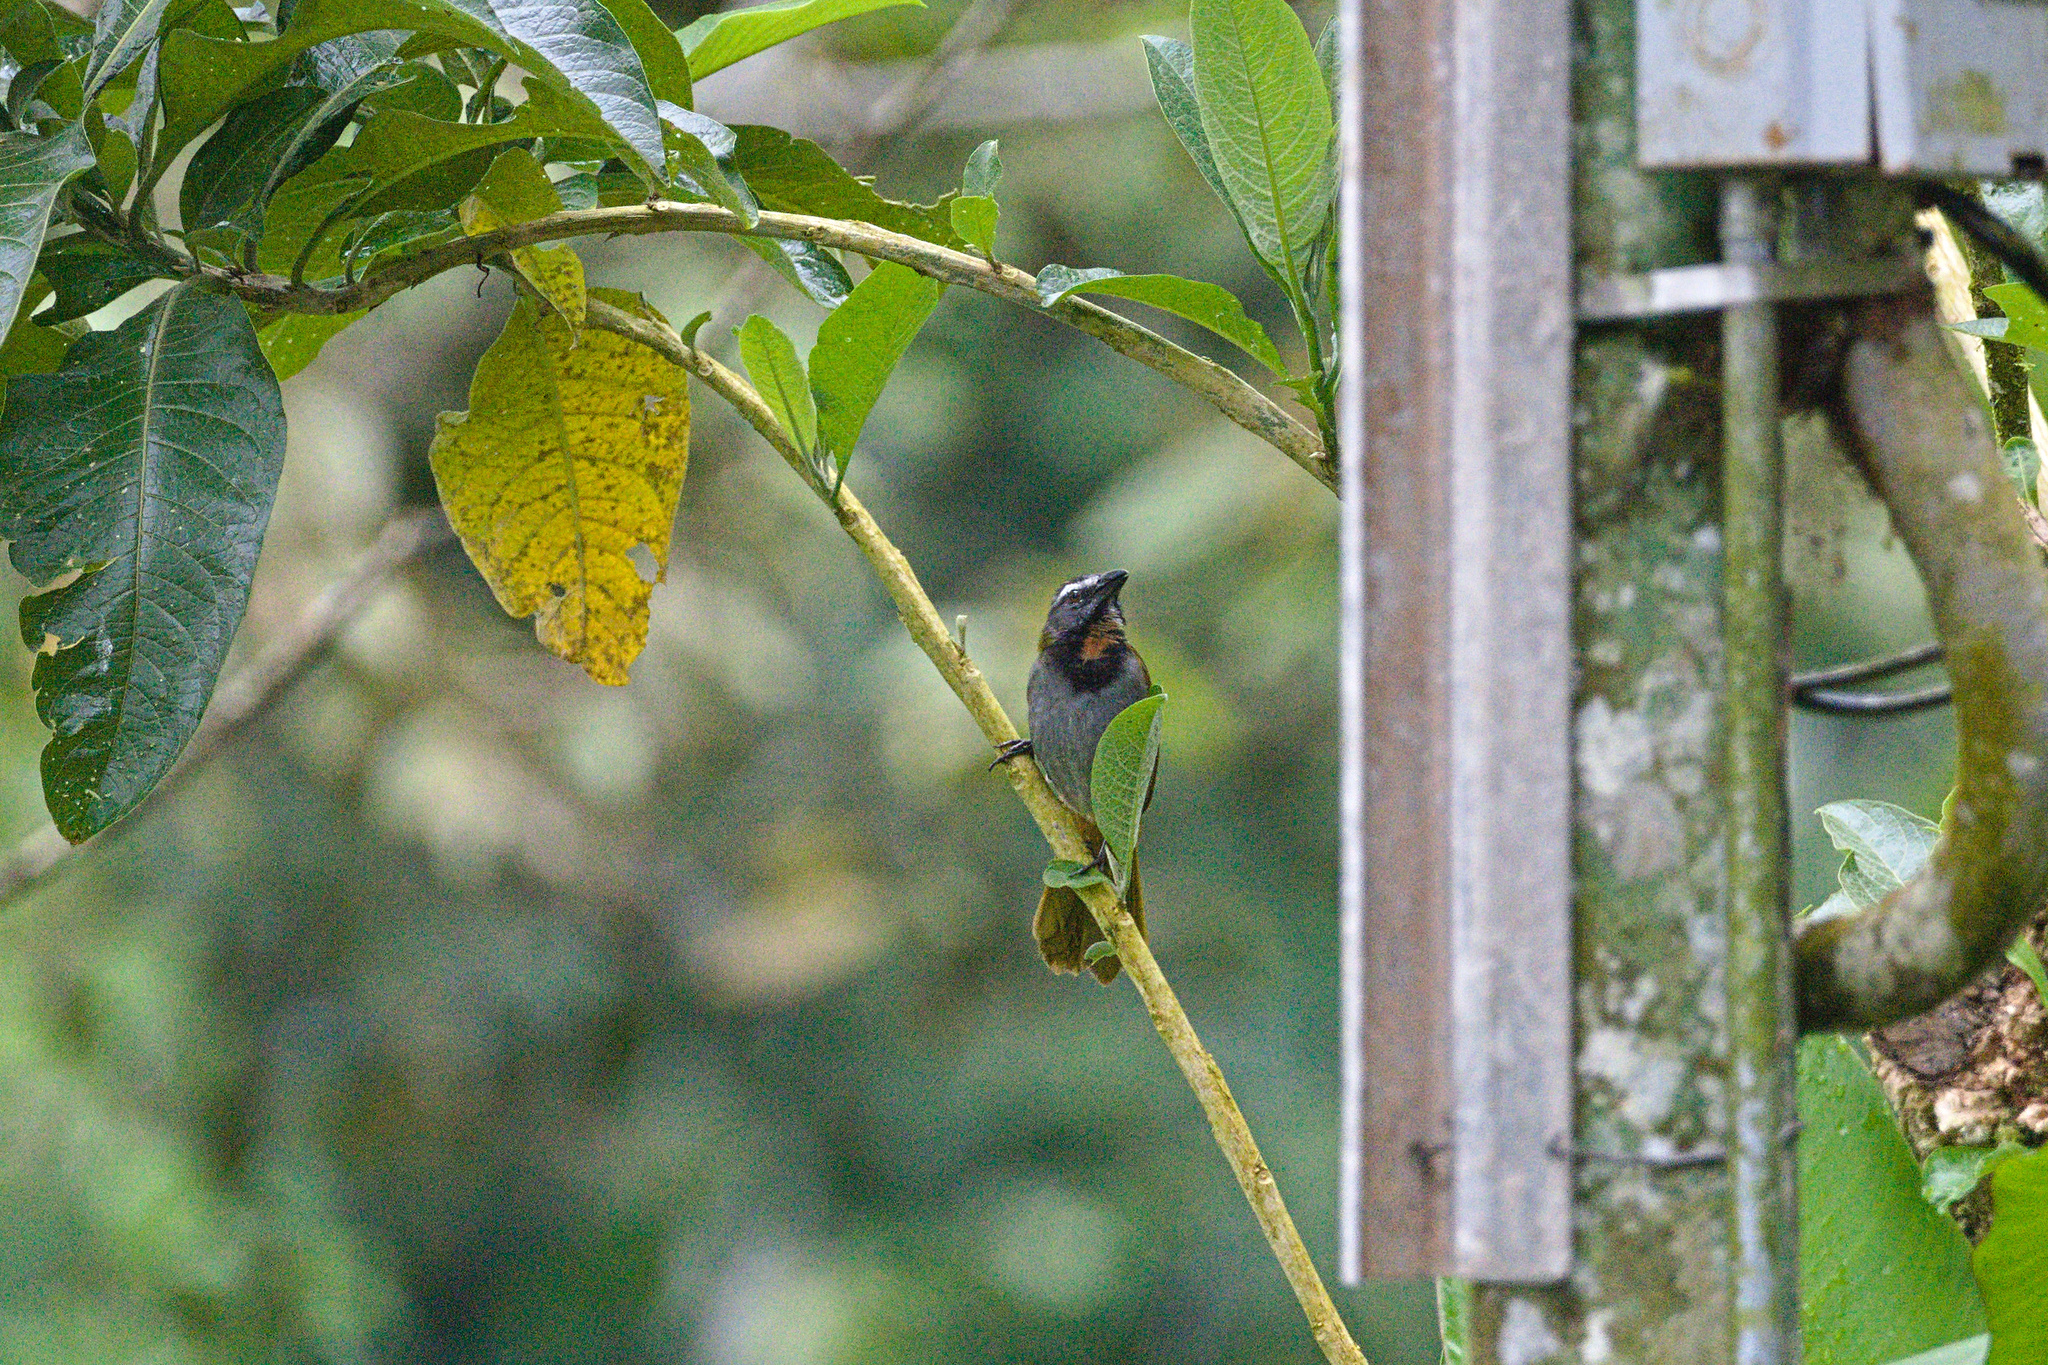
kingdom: Animalia
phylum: Chordata
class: Aves
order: Passeriformes
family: Thraupidae
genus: Saltator
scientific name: Saltator maximus
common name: Buff-throated saltator
